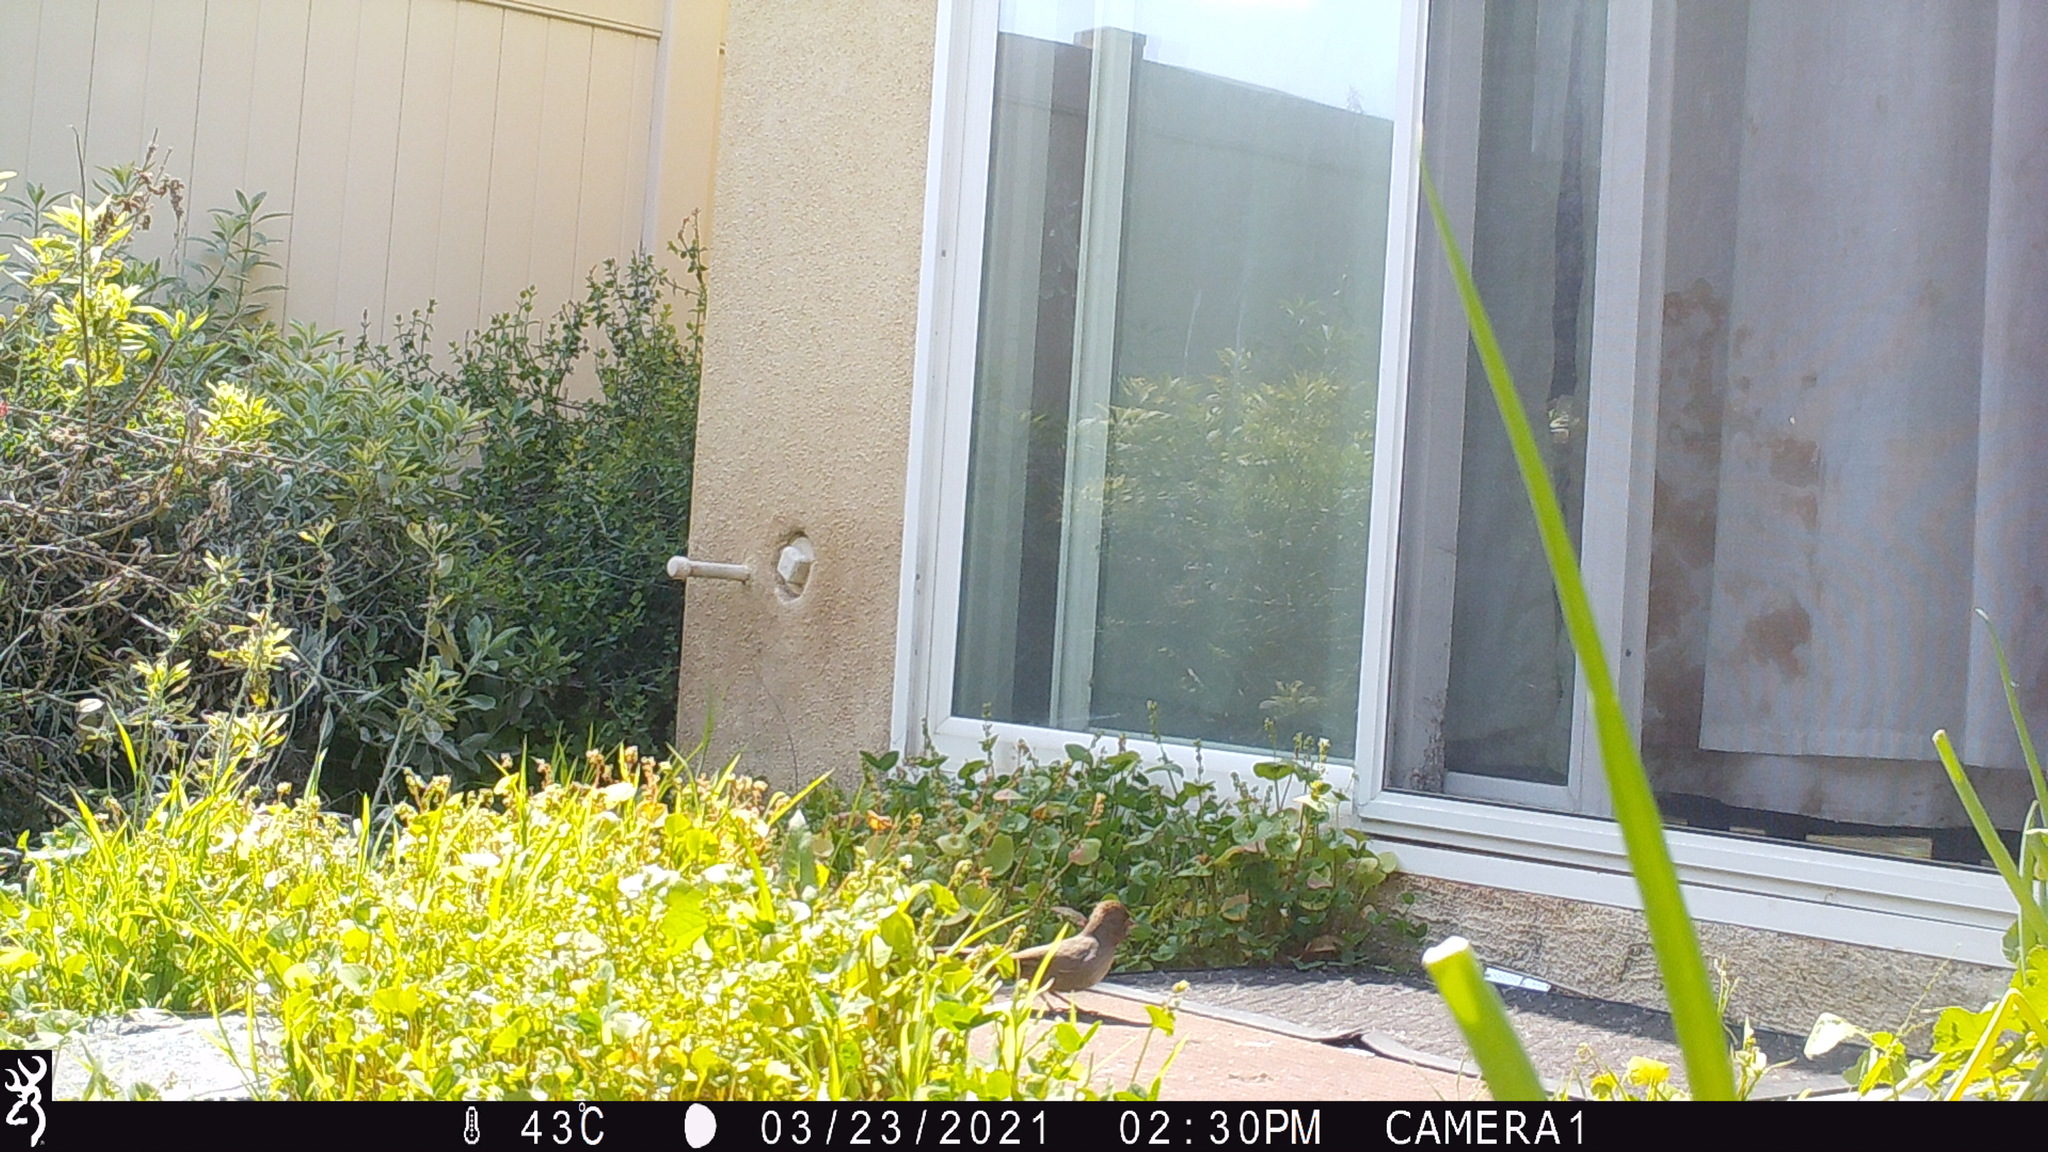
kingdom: Animalia
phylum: Chordata
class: Aves
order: Passeriformes
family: Passerellidae
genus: Melozone
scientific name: Melozone crissalis
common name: California towhee
